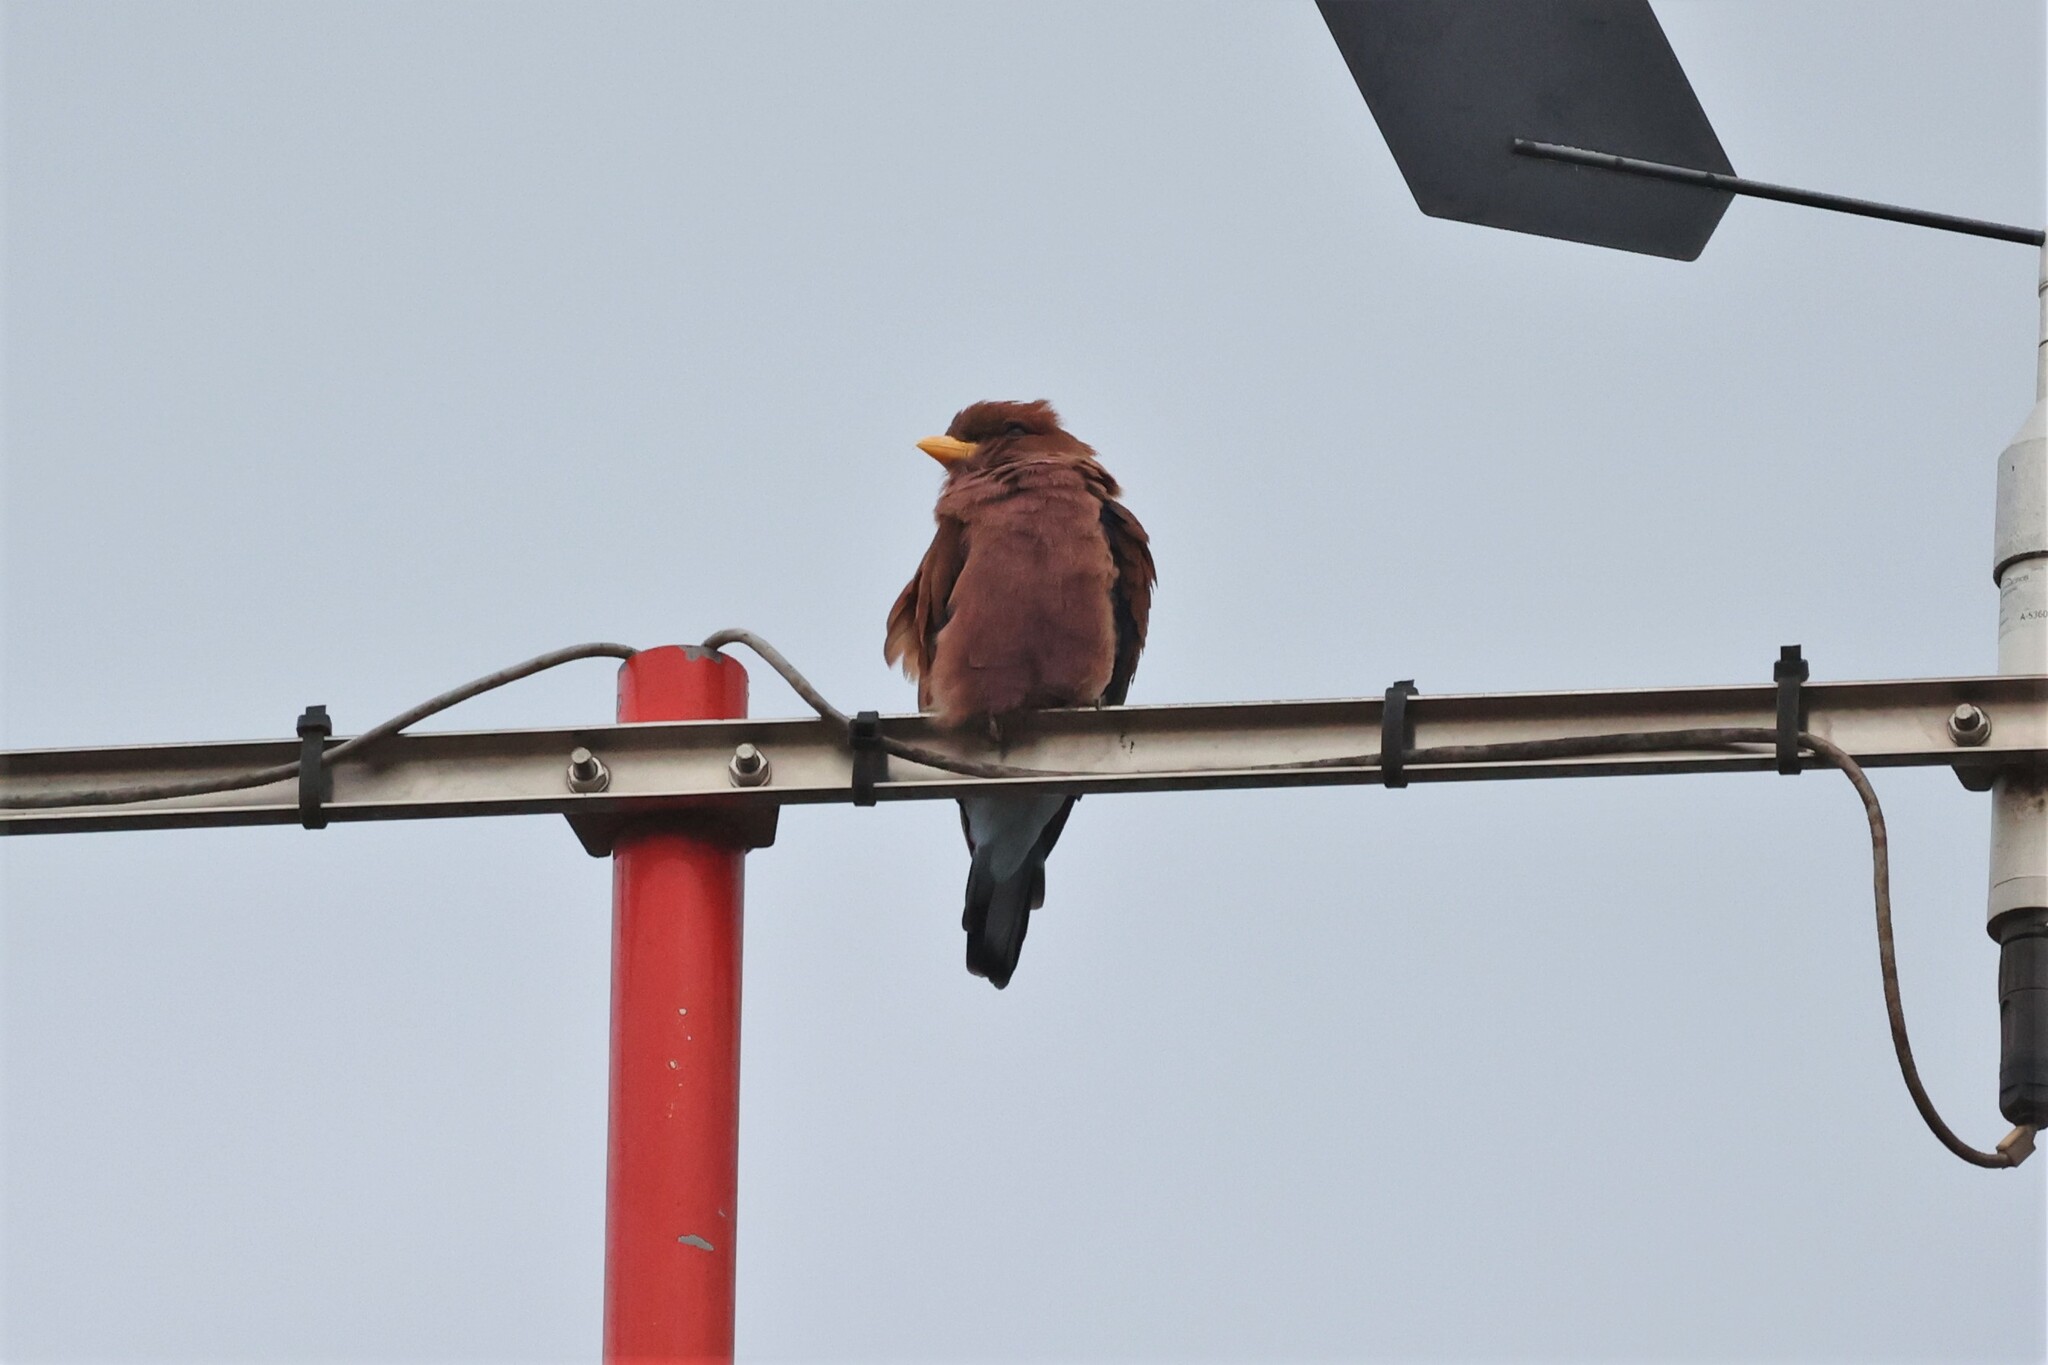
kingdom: Animalia
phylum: Chordata
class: Aves
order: Coraciiformes
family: Coraciidae
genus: Eurystomus
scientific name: Eurystomus glaucurus
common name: Broad-billed roller
